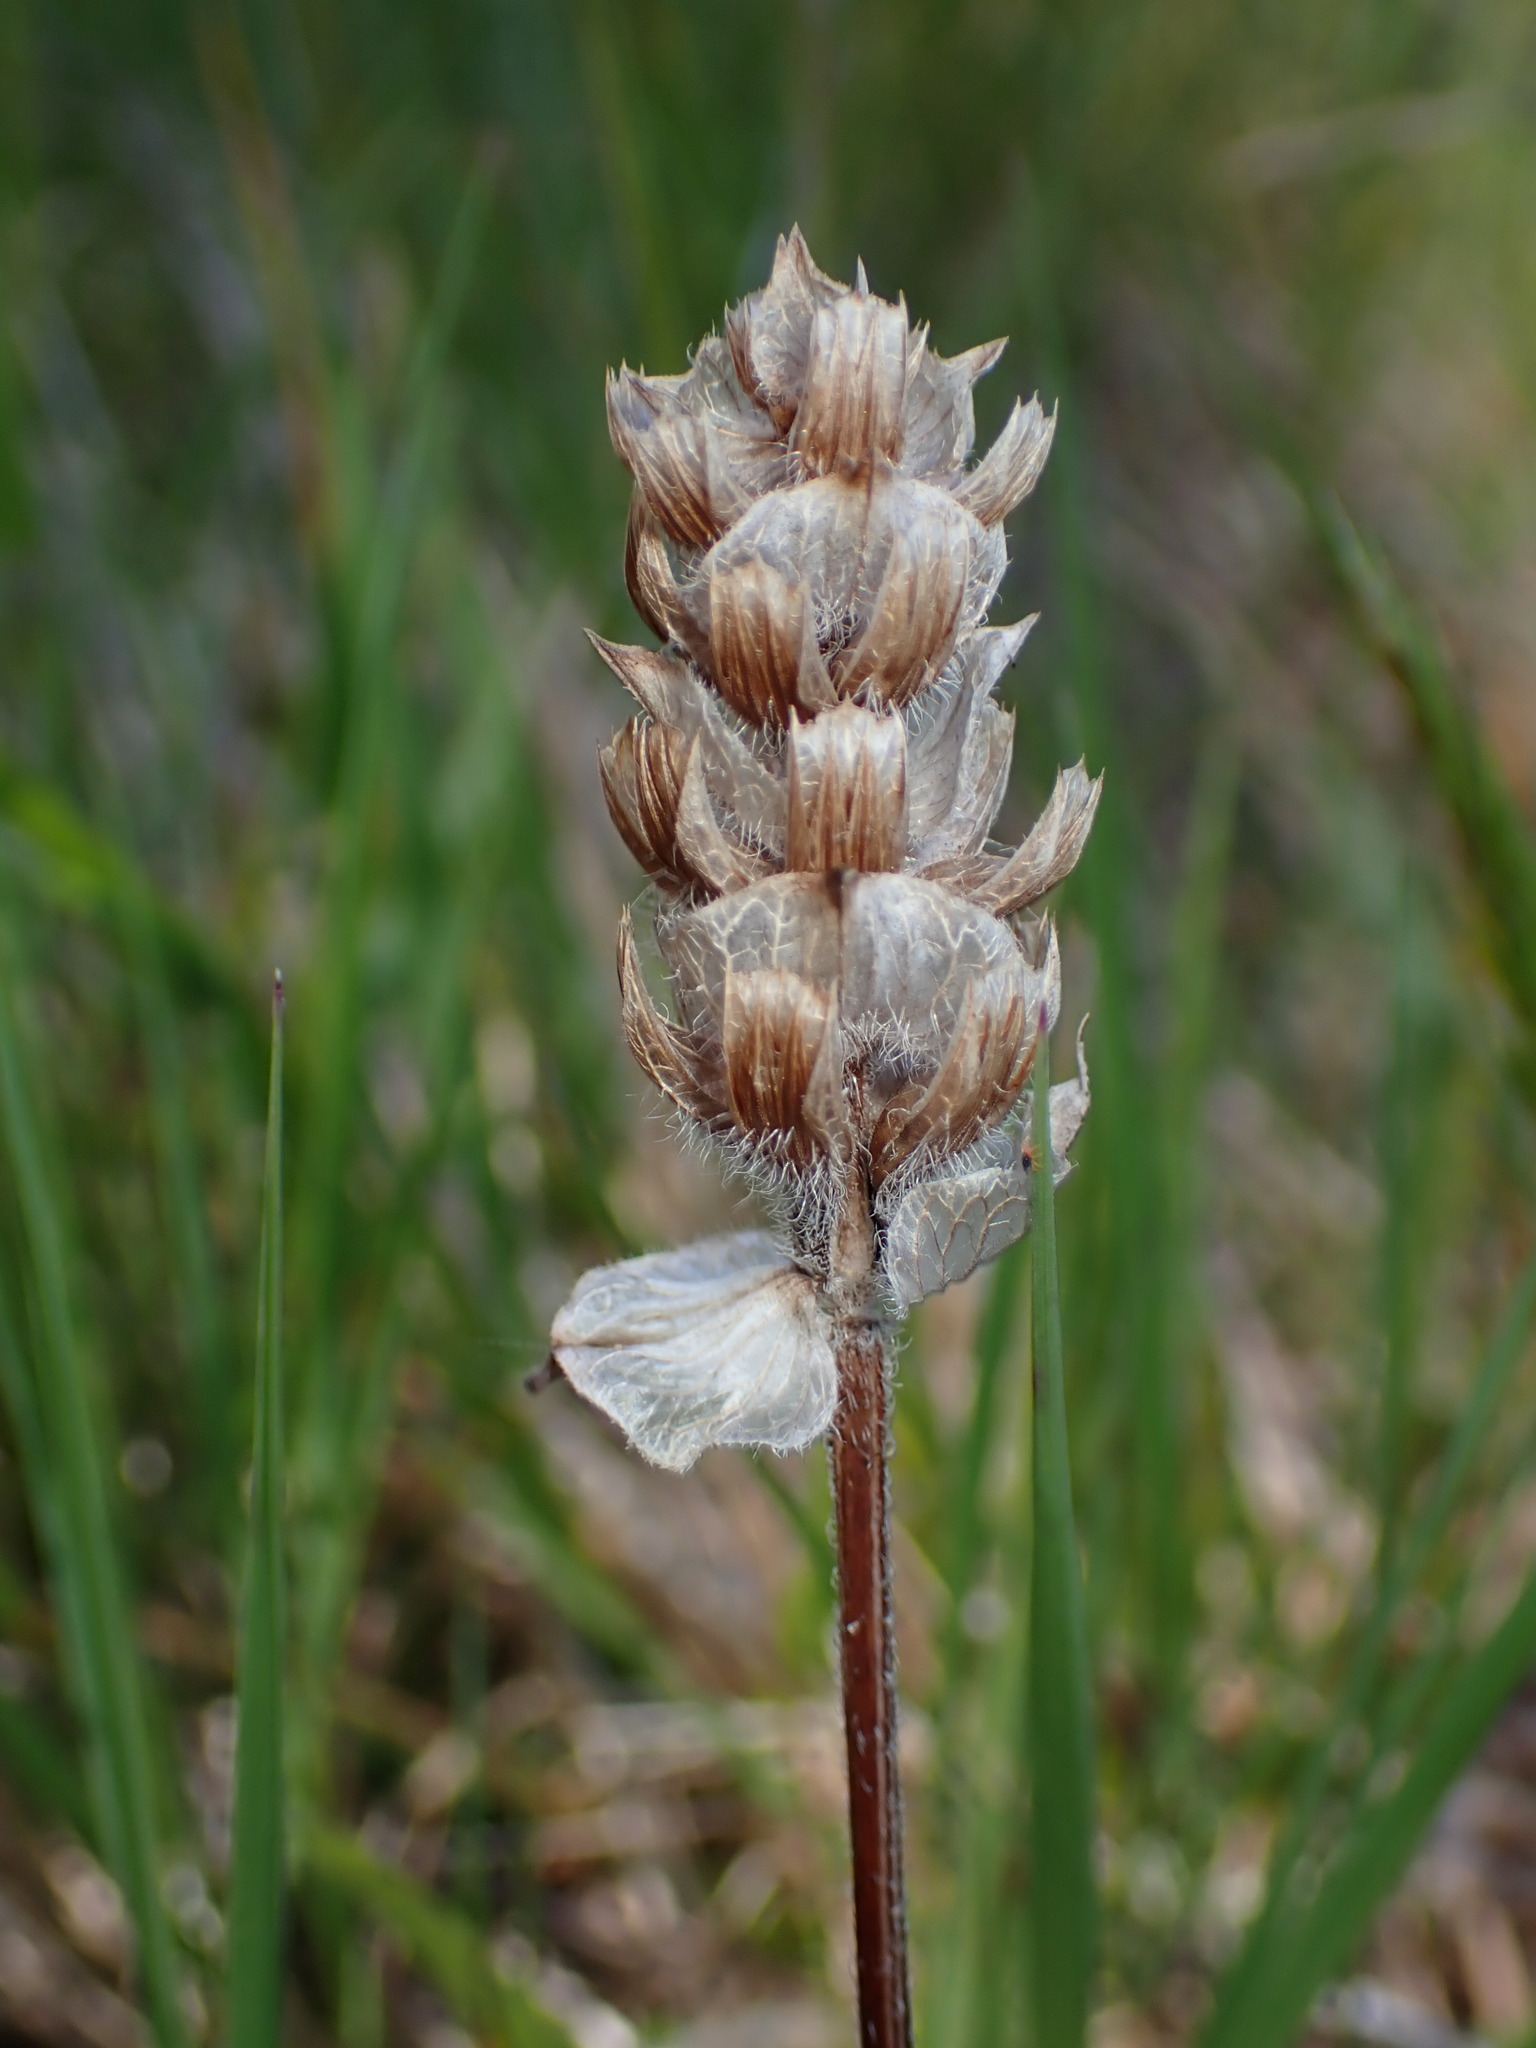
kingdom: Plantae
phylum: Tracheophyta
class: Magnoliopsida
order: Lamiales
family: Lamiaceae
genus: Prunella
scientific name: Prunella vulgaris
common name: Heal-all
